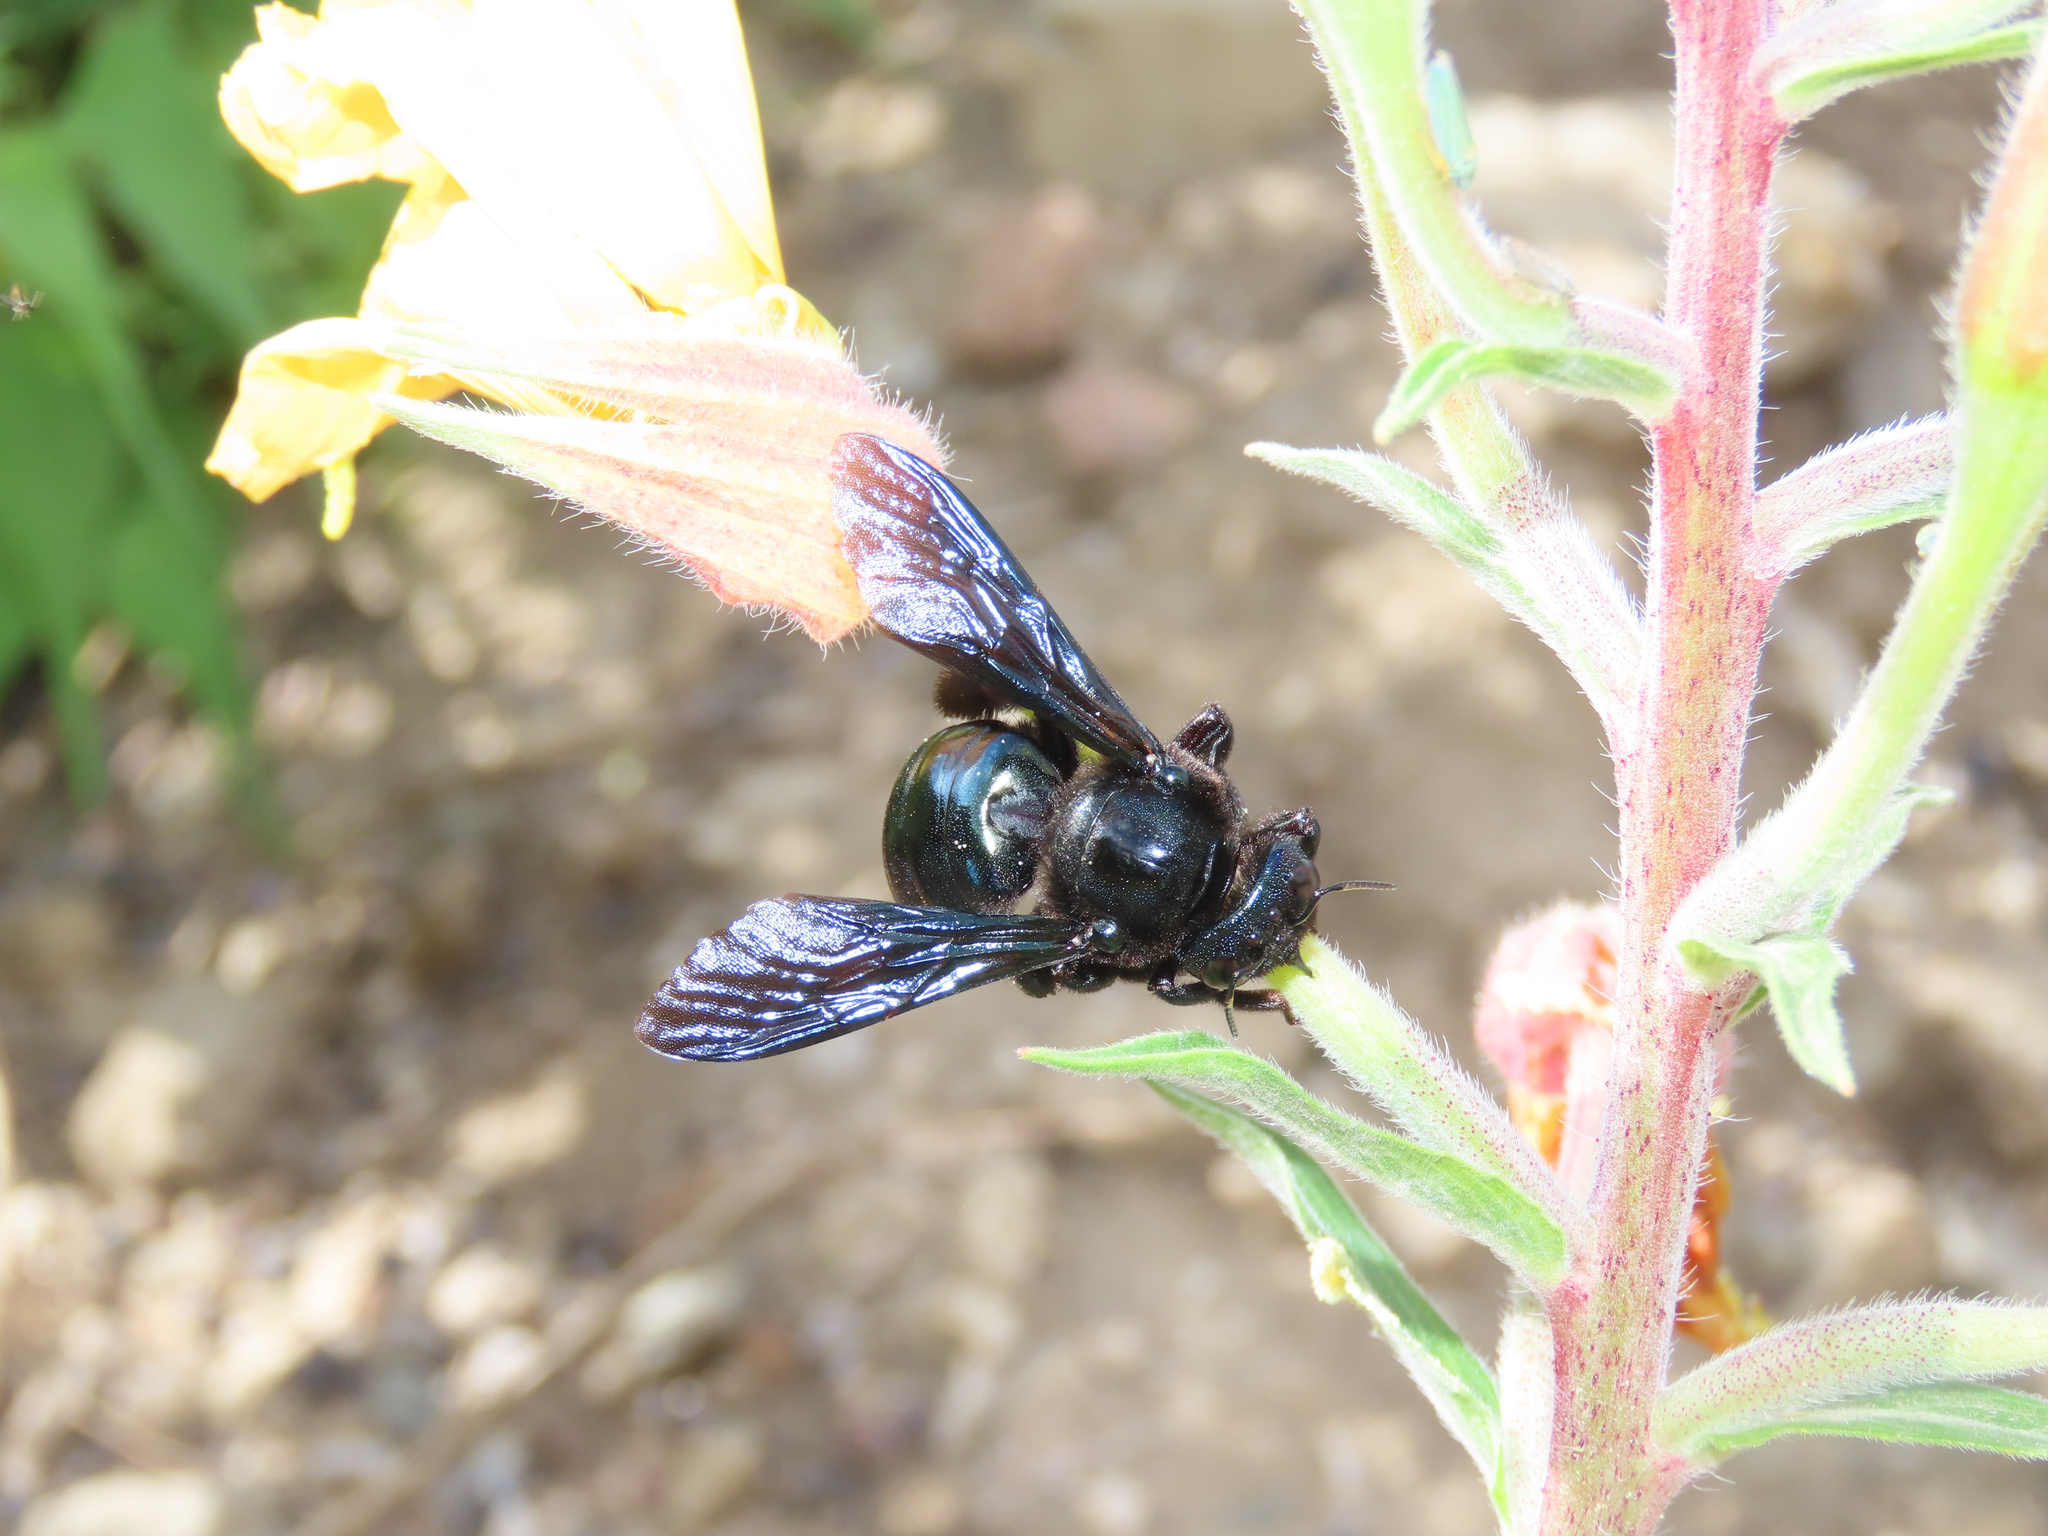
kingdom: Animalia
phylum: Arthropoda
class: Insecta
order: Hymenoptera
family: Apidae
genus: Xylocopa
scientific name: Xylocopa californica
